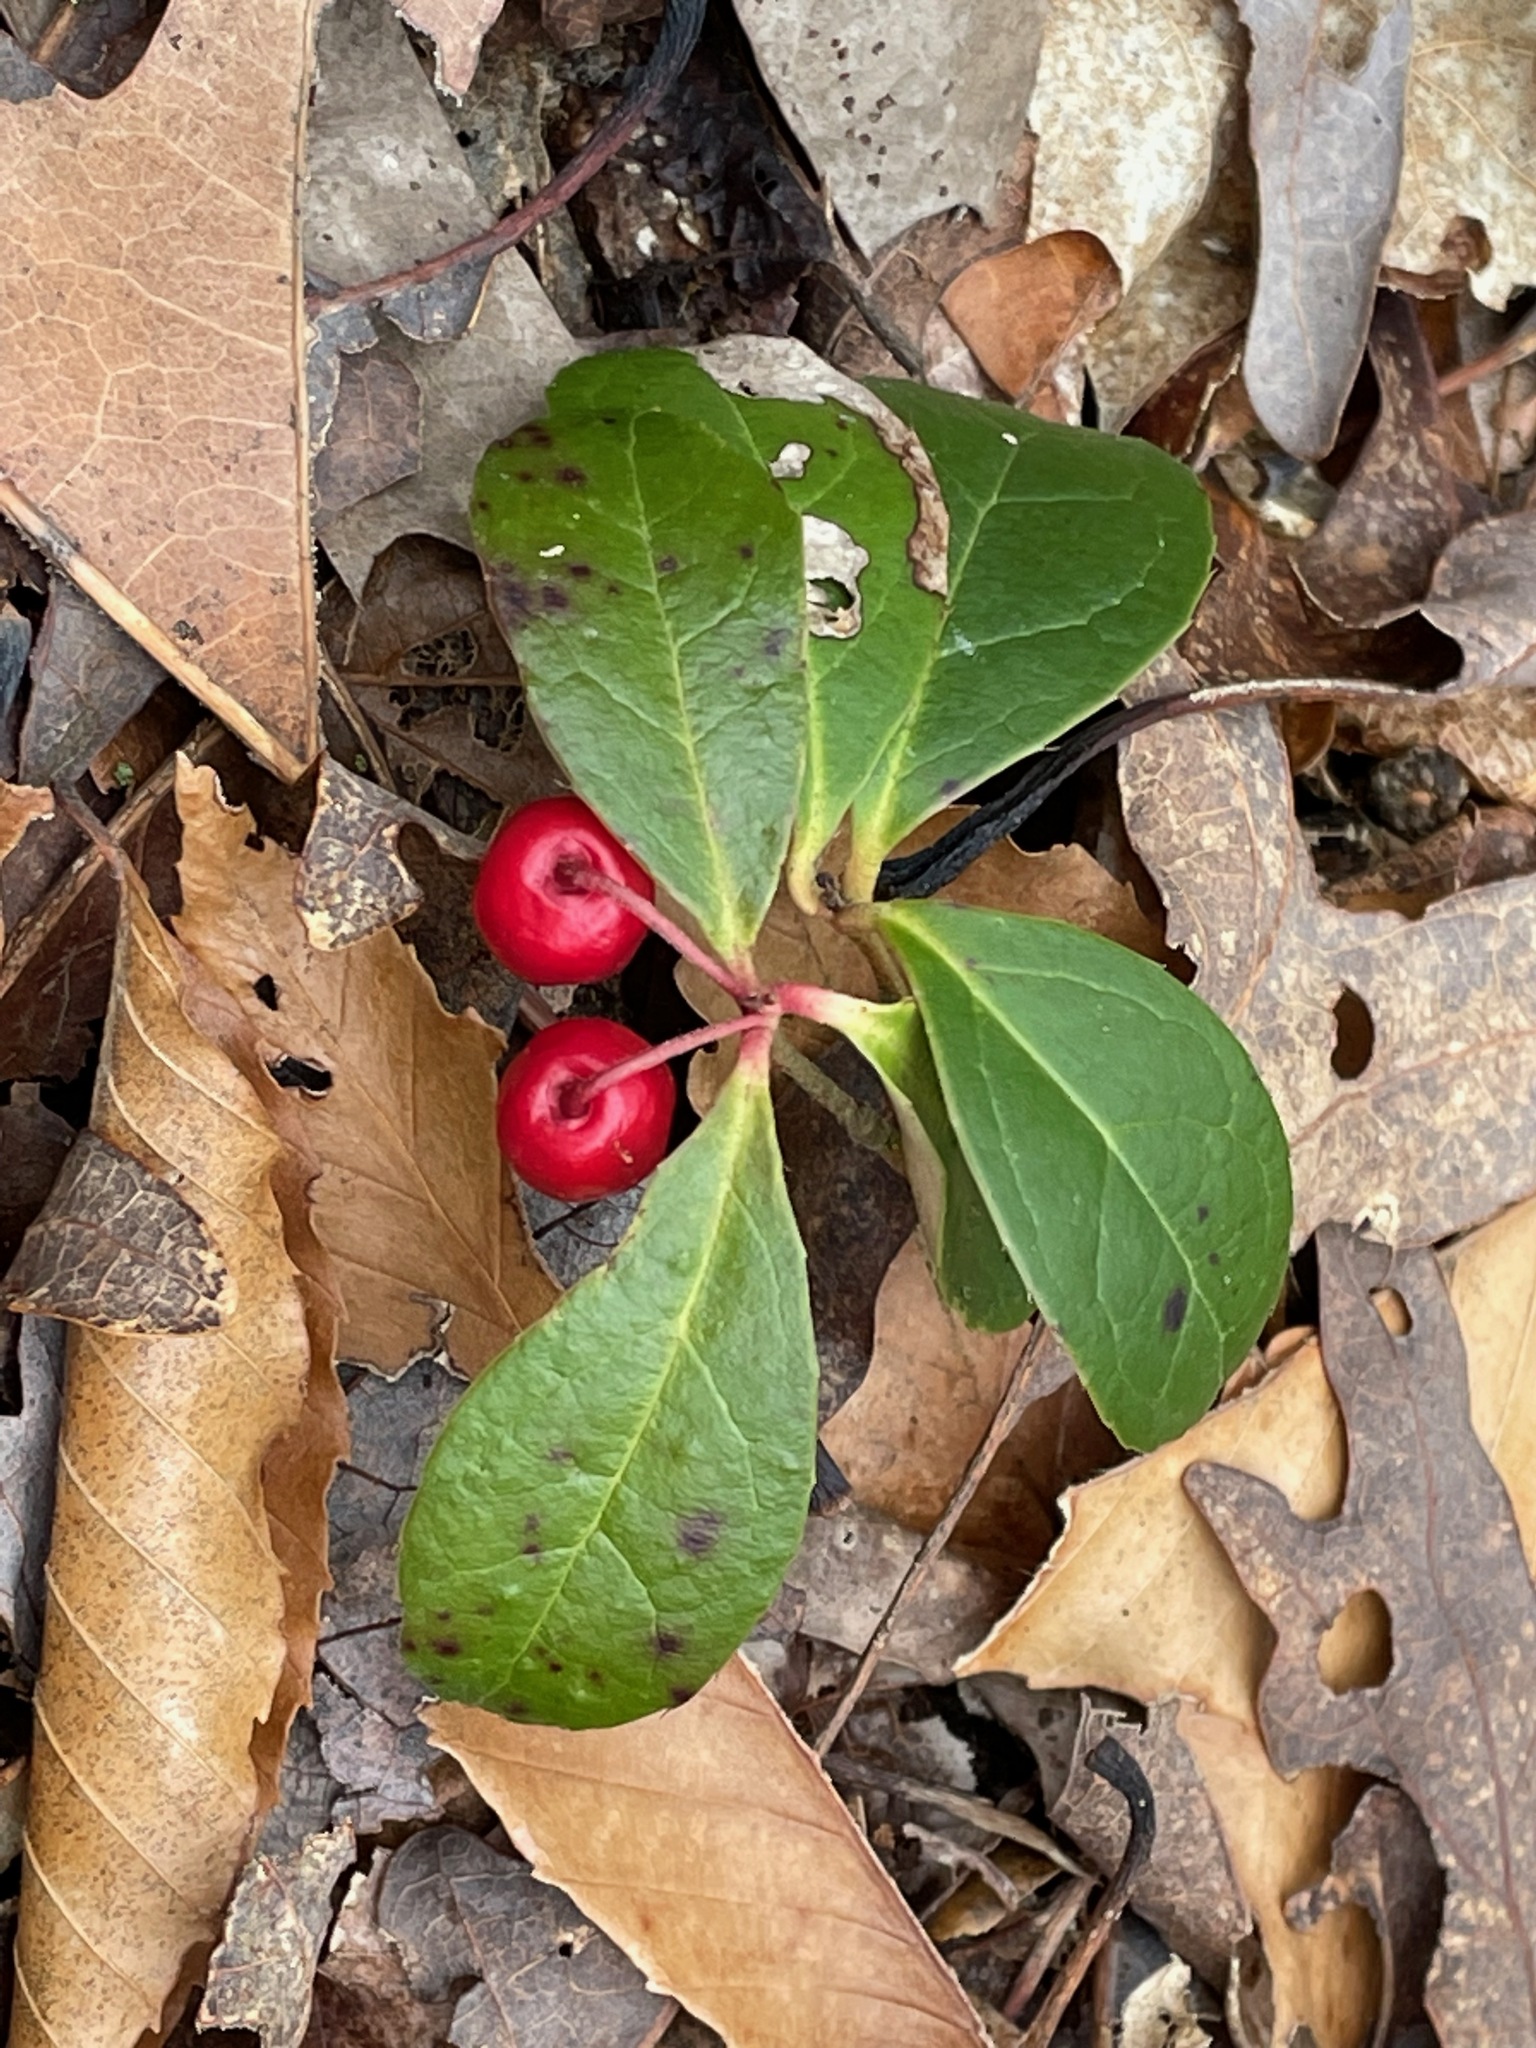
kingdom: Plantae
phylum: Tracheophyta
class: Magnoliopsida
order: Ericales
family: Ericaceae
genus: Gaultheria
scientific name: Gaultheria procumbens
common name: Checkerberry
